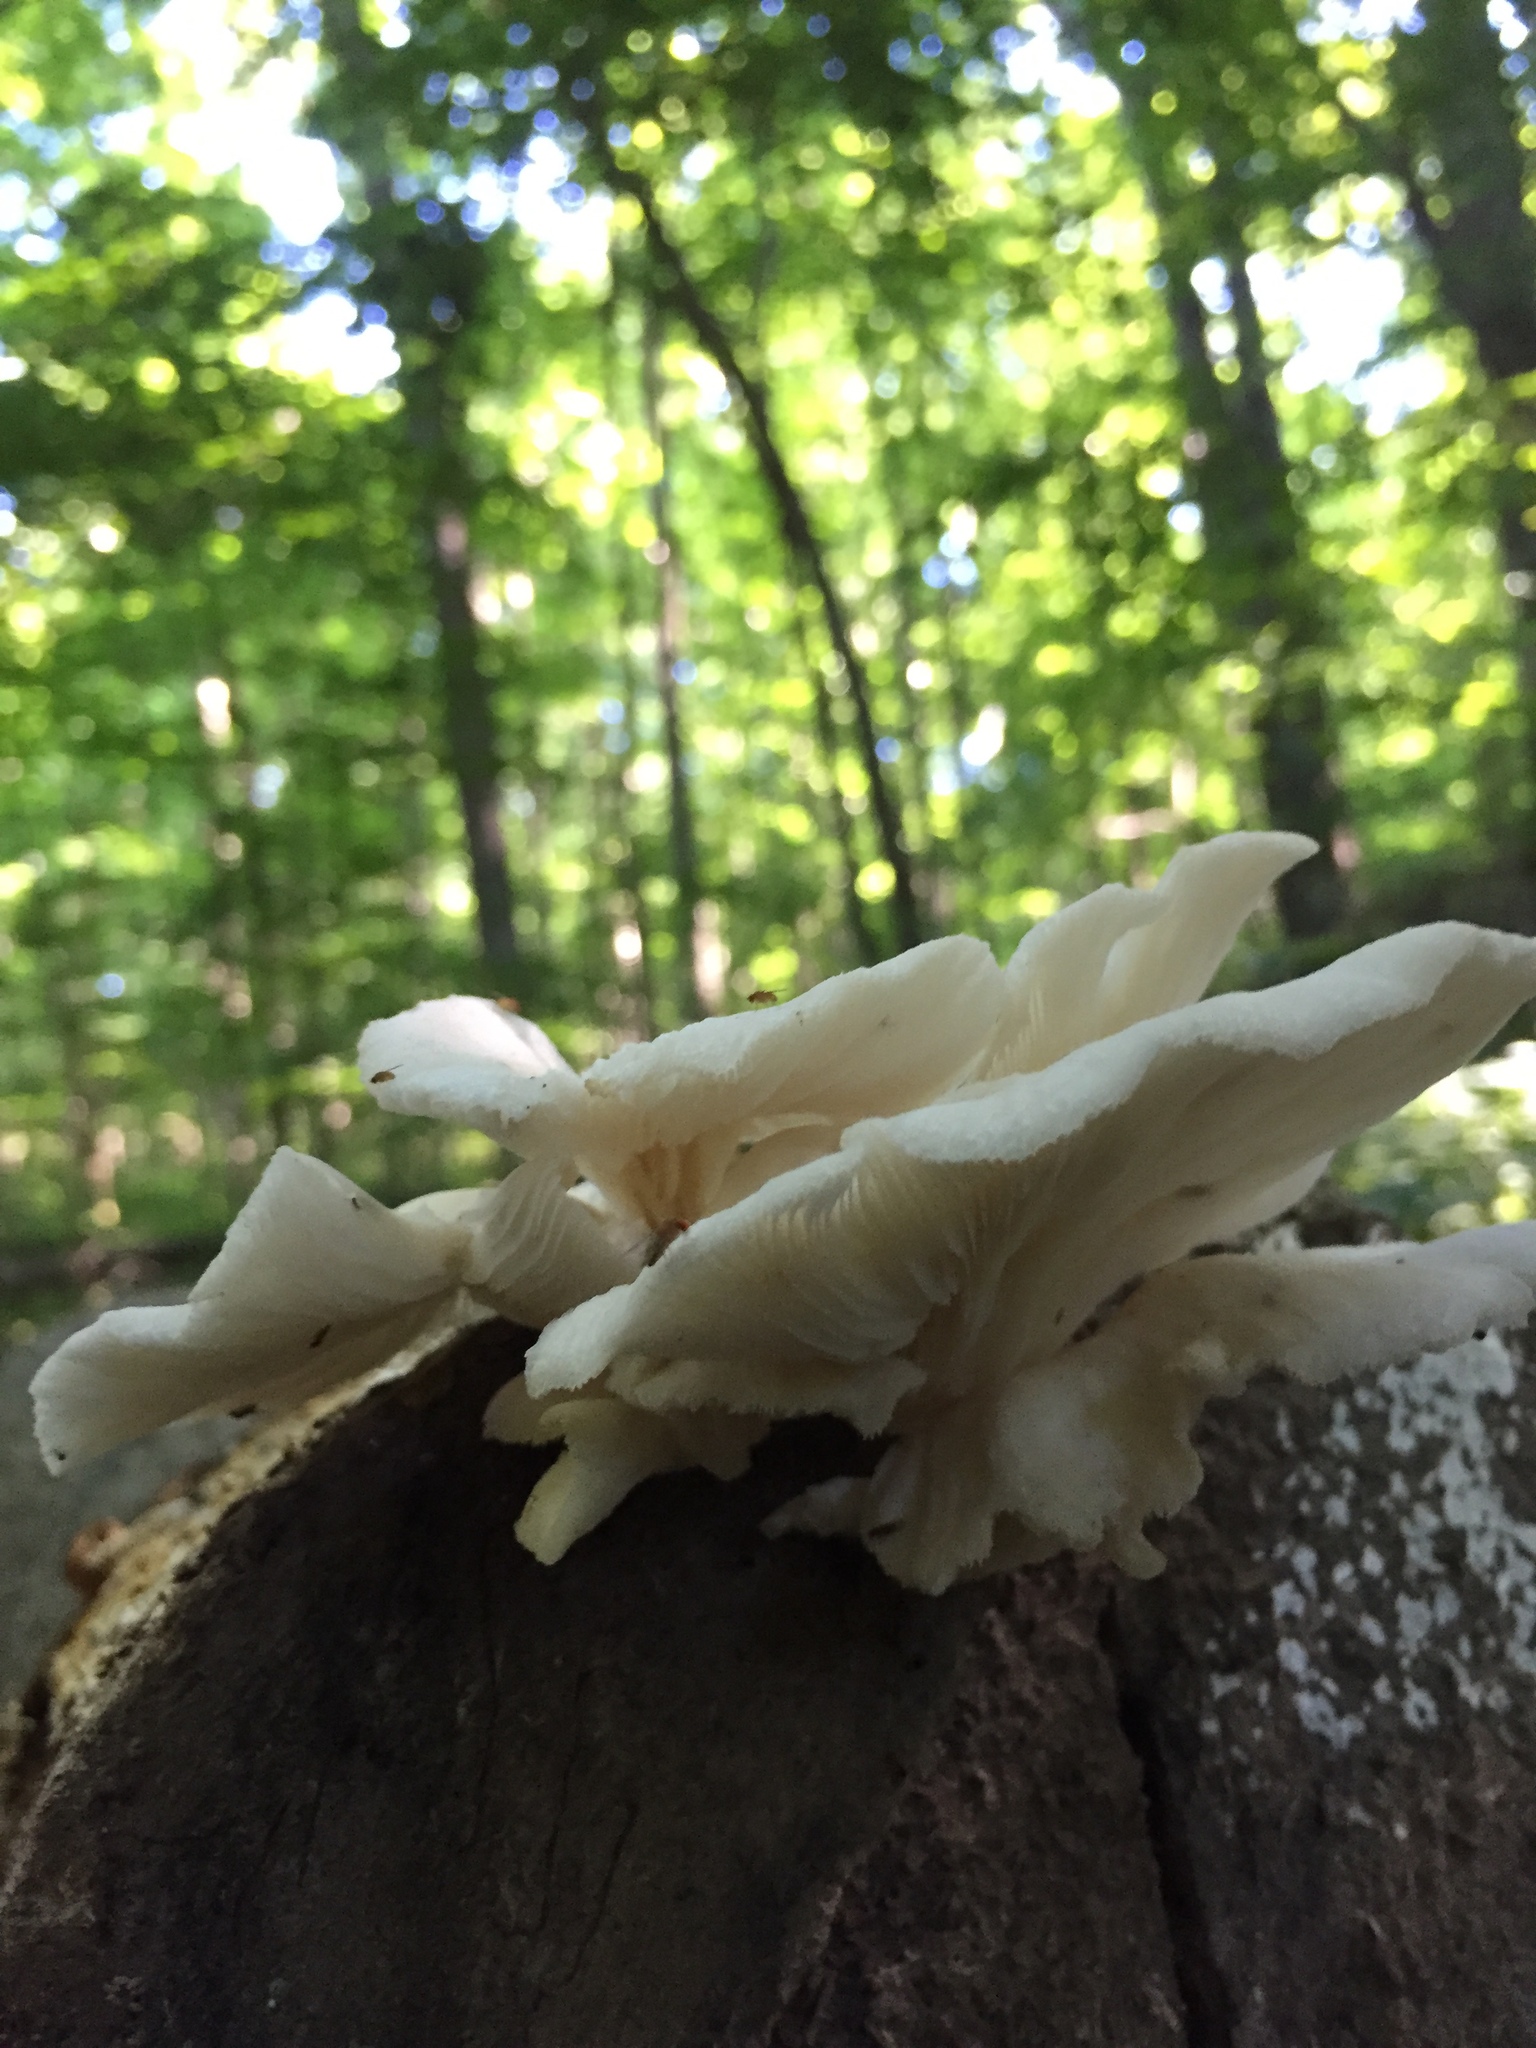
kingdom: Fungi
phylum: Basidiomycota
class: Agaricomycetes
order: Agaricales
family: Pleurotaceae
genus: Pleurotus
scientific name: Pleurotus pulmonarius
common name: Pale oyster
